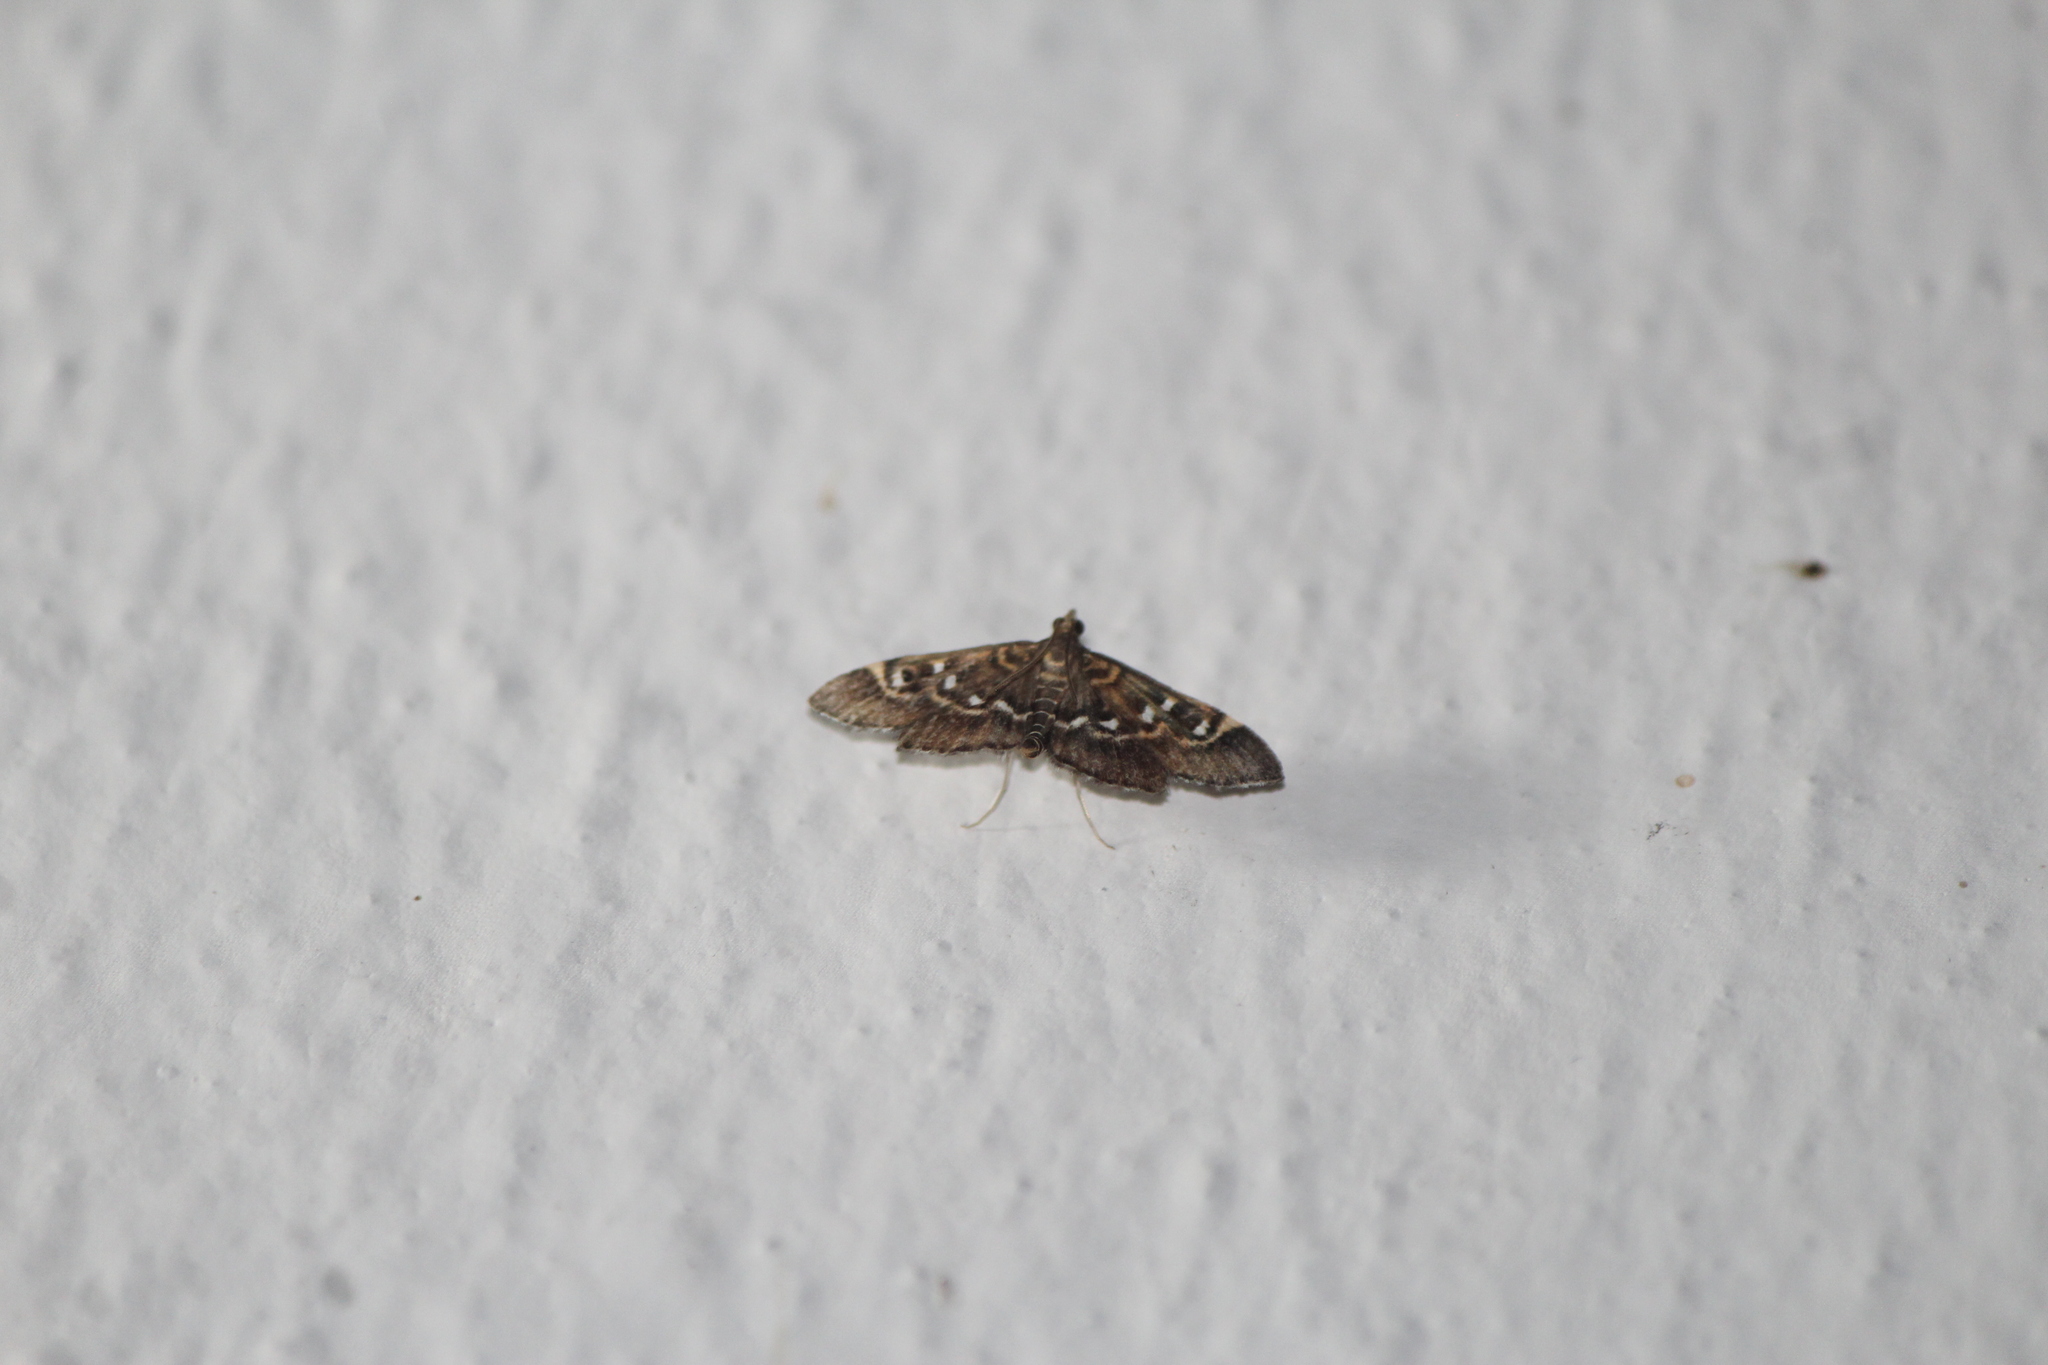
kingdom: Animalia
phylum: Arthropoda
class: Insecta
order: Lepidoptera
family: Crambidae
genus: Diathrausta
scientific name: Diathrausta harlequinalis
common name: Harlequin webworm moth
